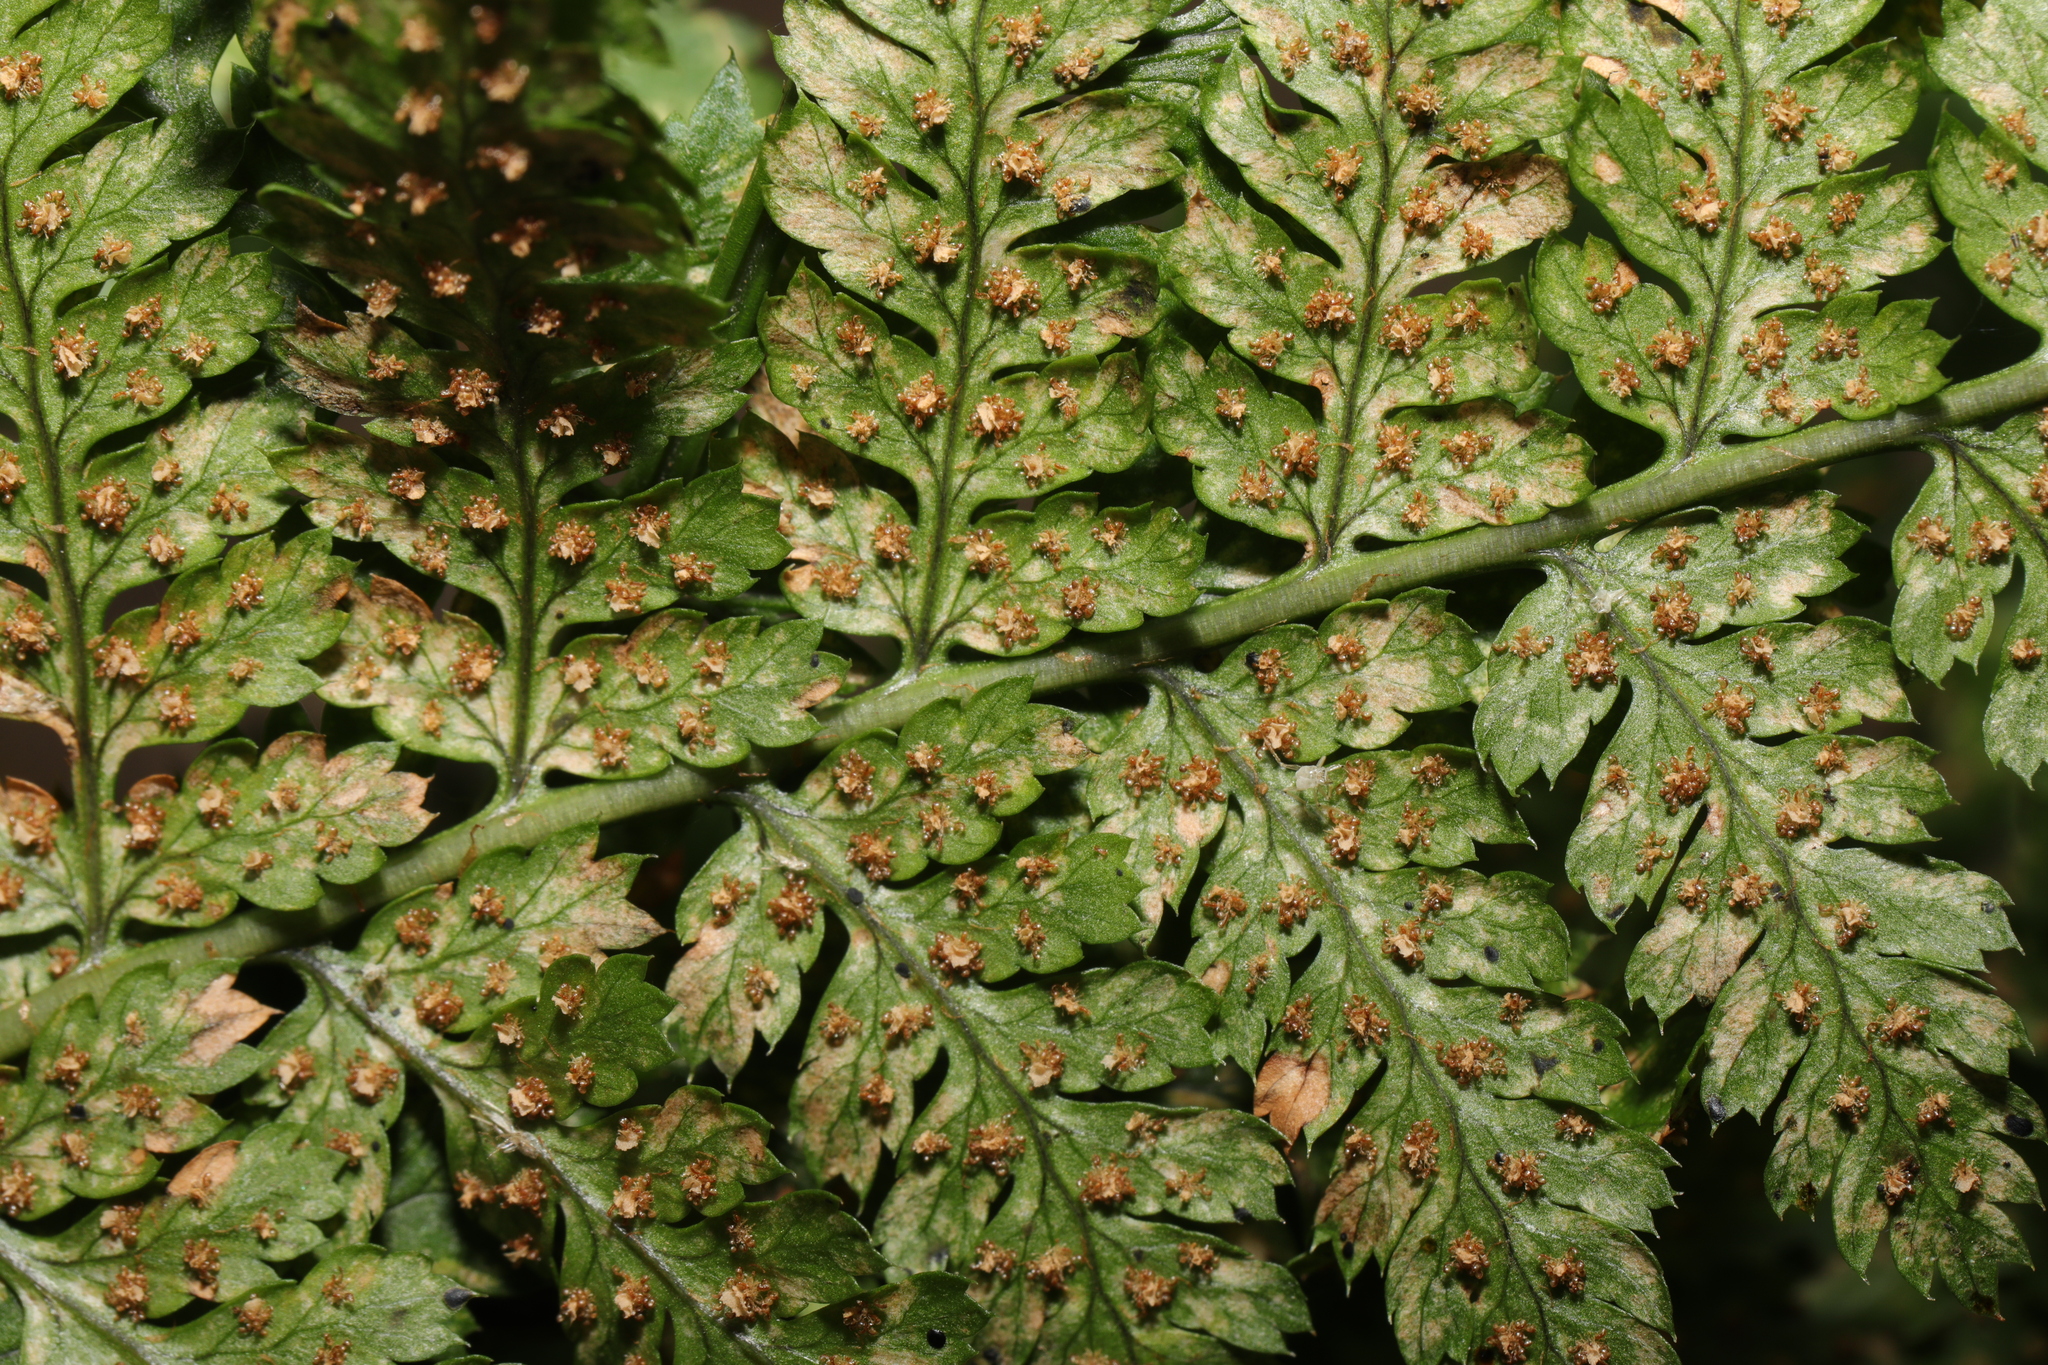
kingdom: Plantae
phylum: Tracheophyta
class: Polypodiopsida
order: Polypodiales
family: Dryopteridaceae
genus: Dryopteris
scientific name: Dryopteris dilatata
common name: Broad buckler-fern
